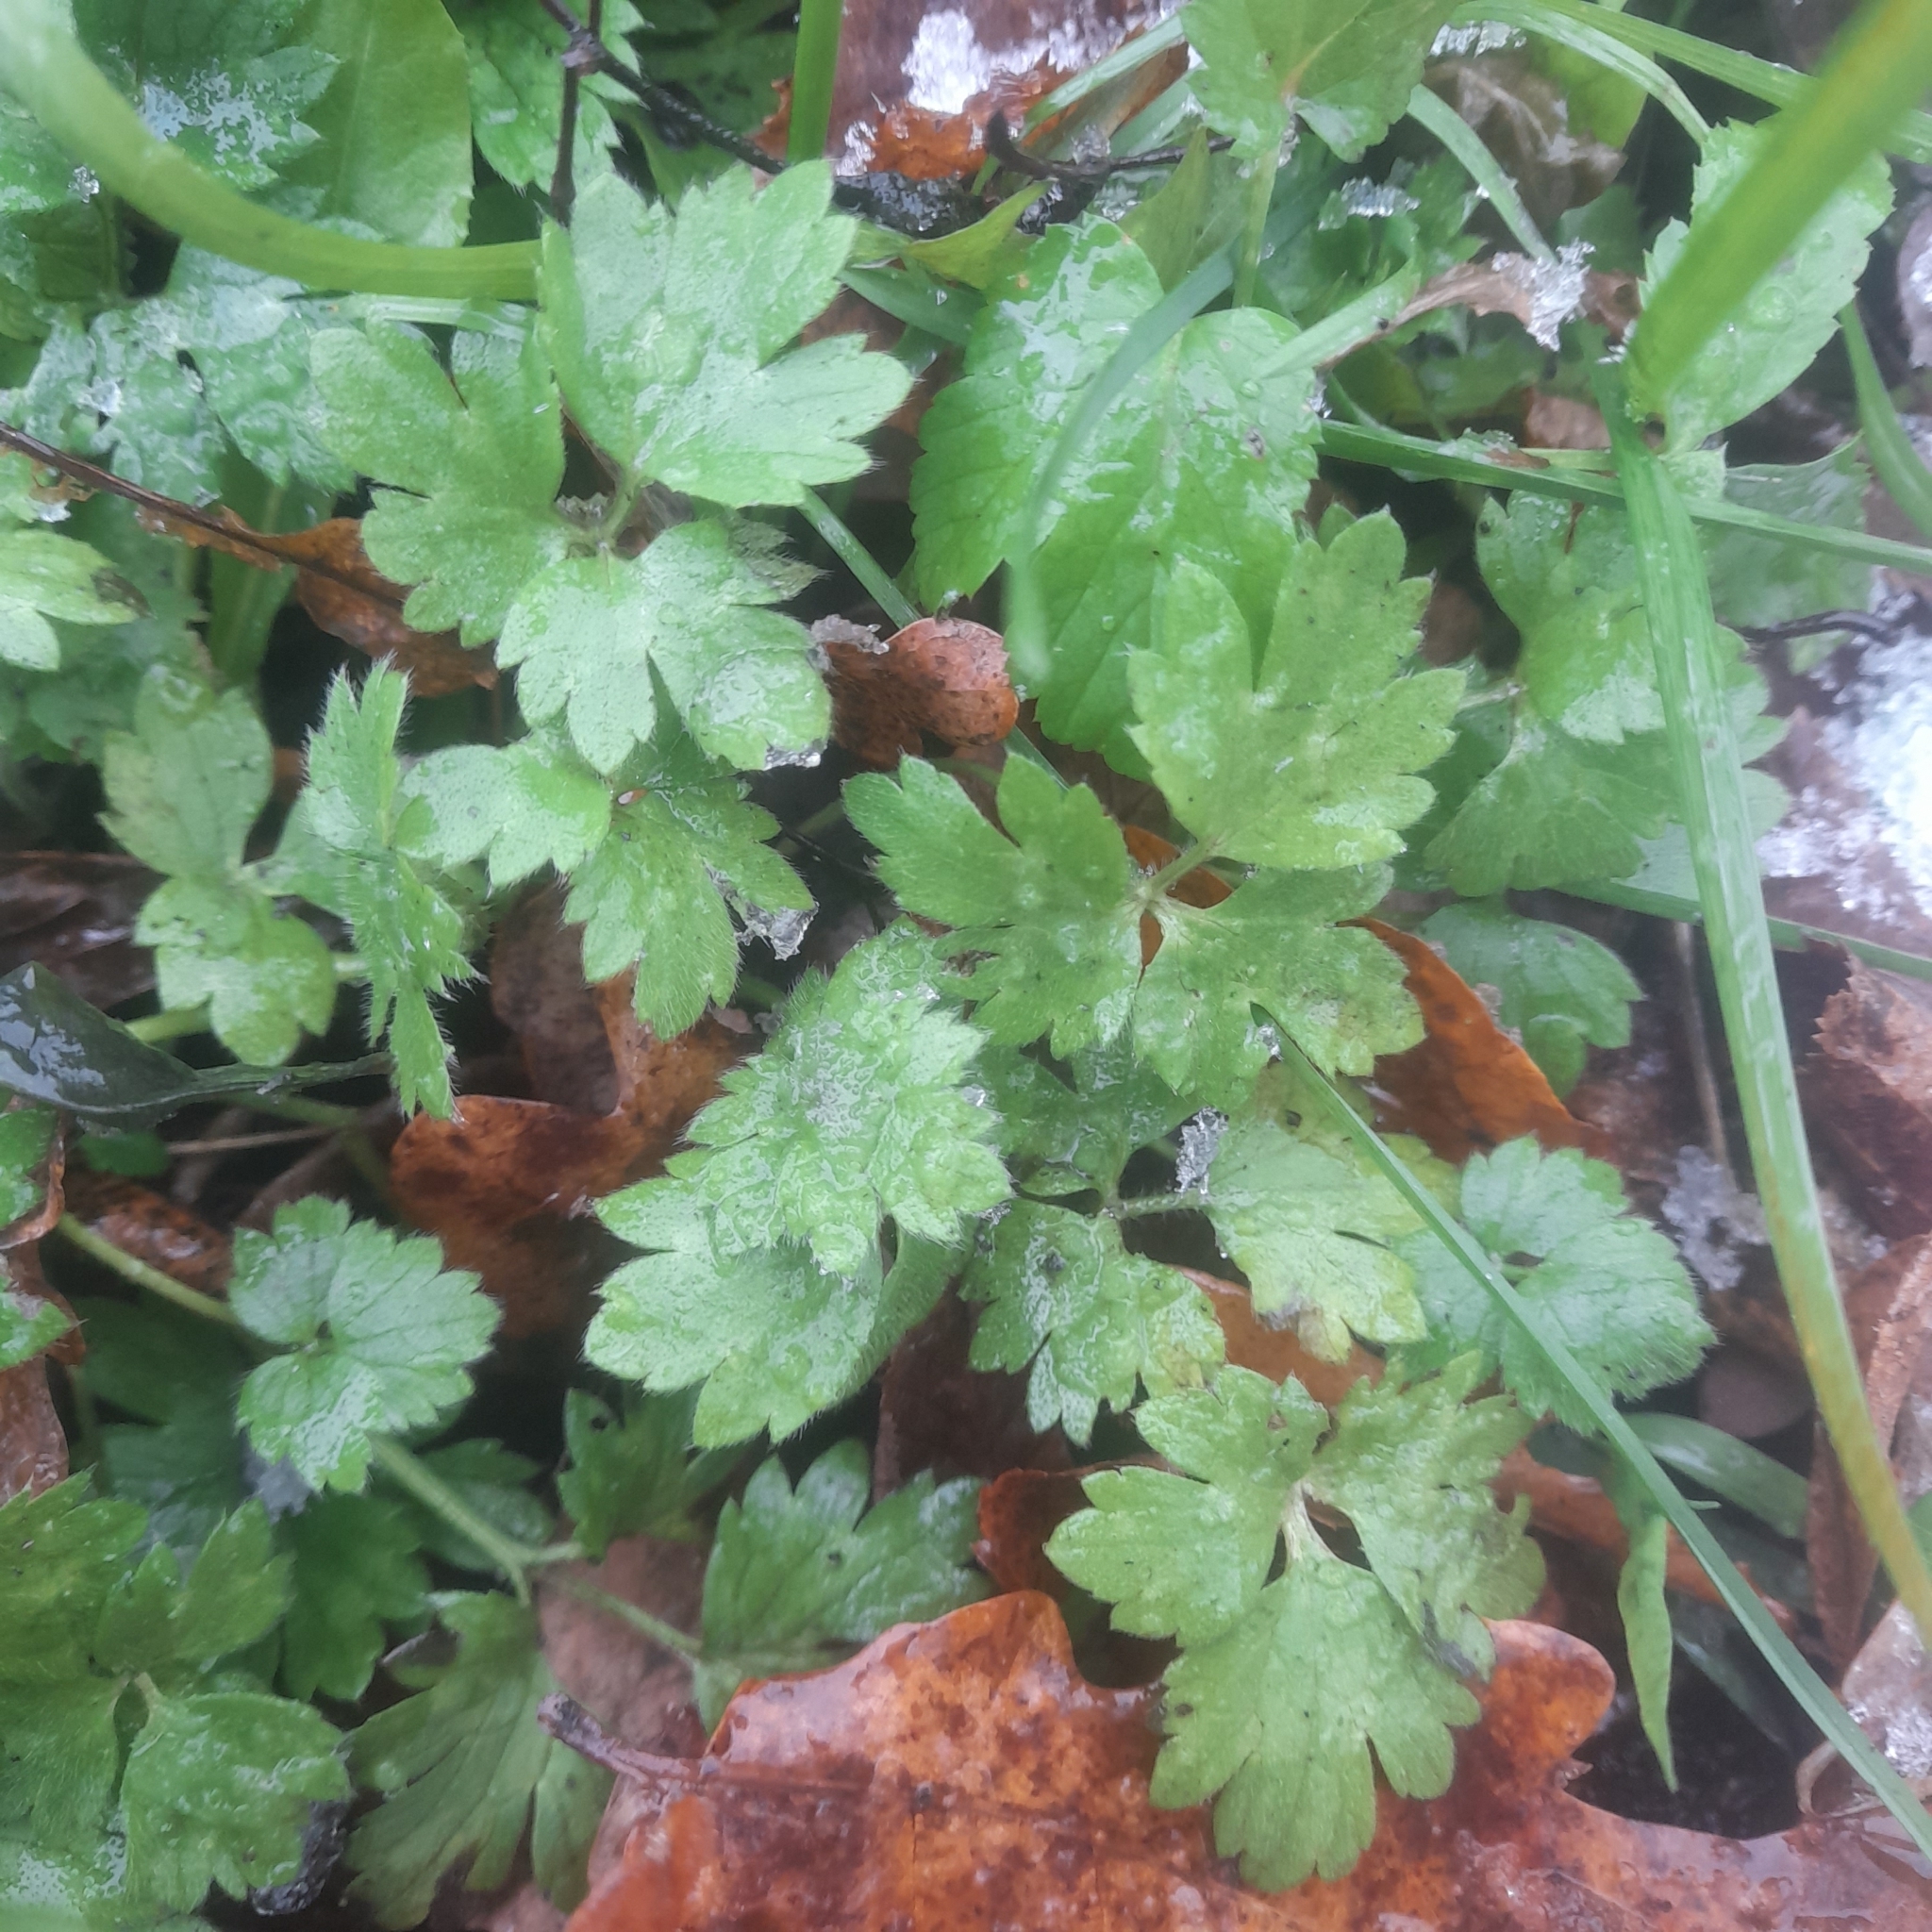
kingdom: Plantae
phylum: Tracheophyta
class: Magnoliopsida
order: Ranunculales
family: Ranunculaceae
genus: Ranunculus
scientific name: Ranunculus repens
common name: Creeping buttercup
